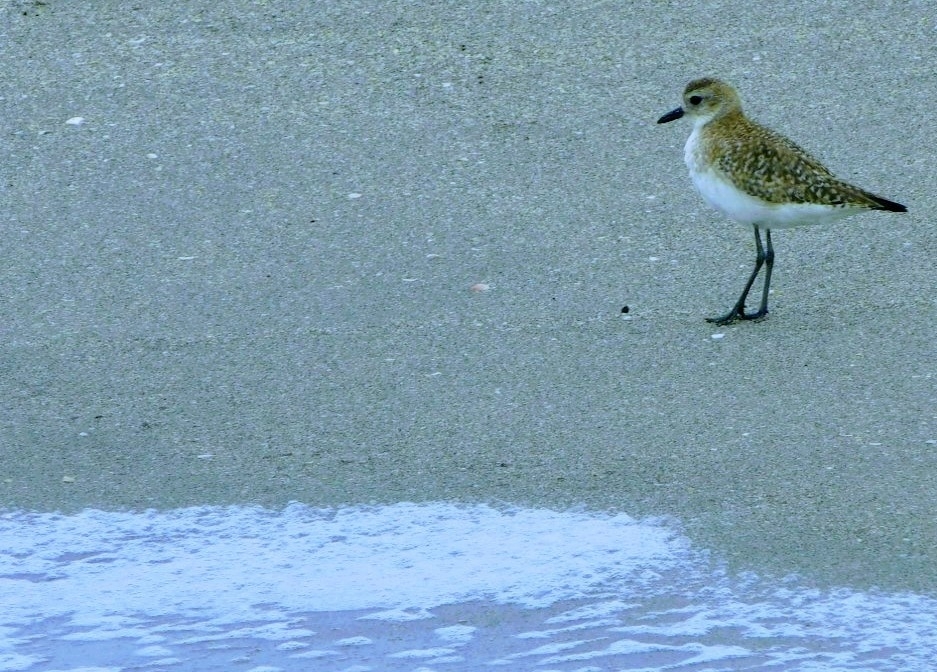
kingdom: Animalia
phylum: Chordata
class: Aves
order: Charadriiformes
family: Charadriidae
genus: Pluvialis
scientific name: Pluvialis squatarola
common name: Grey plover
